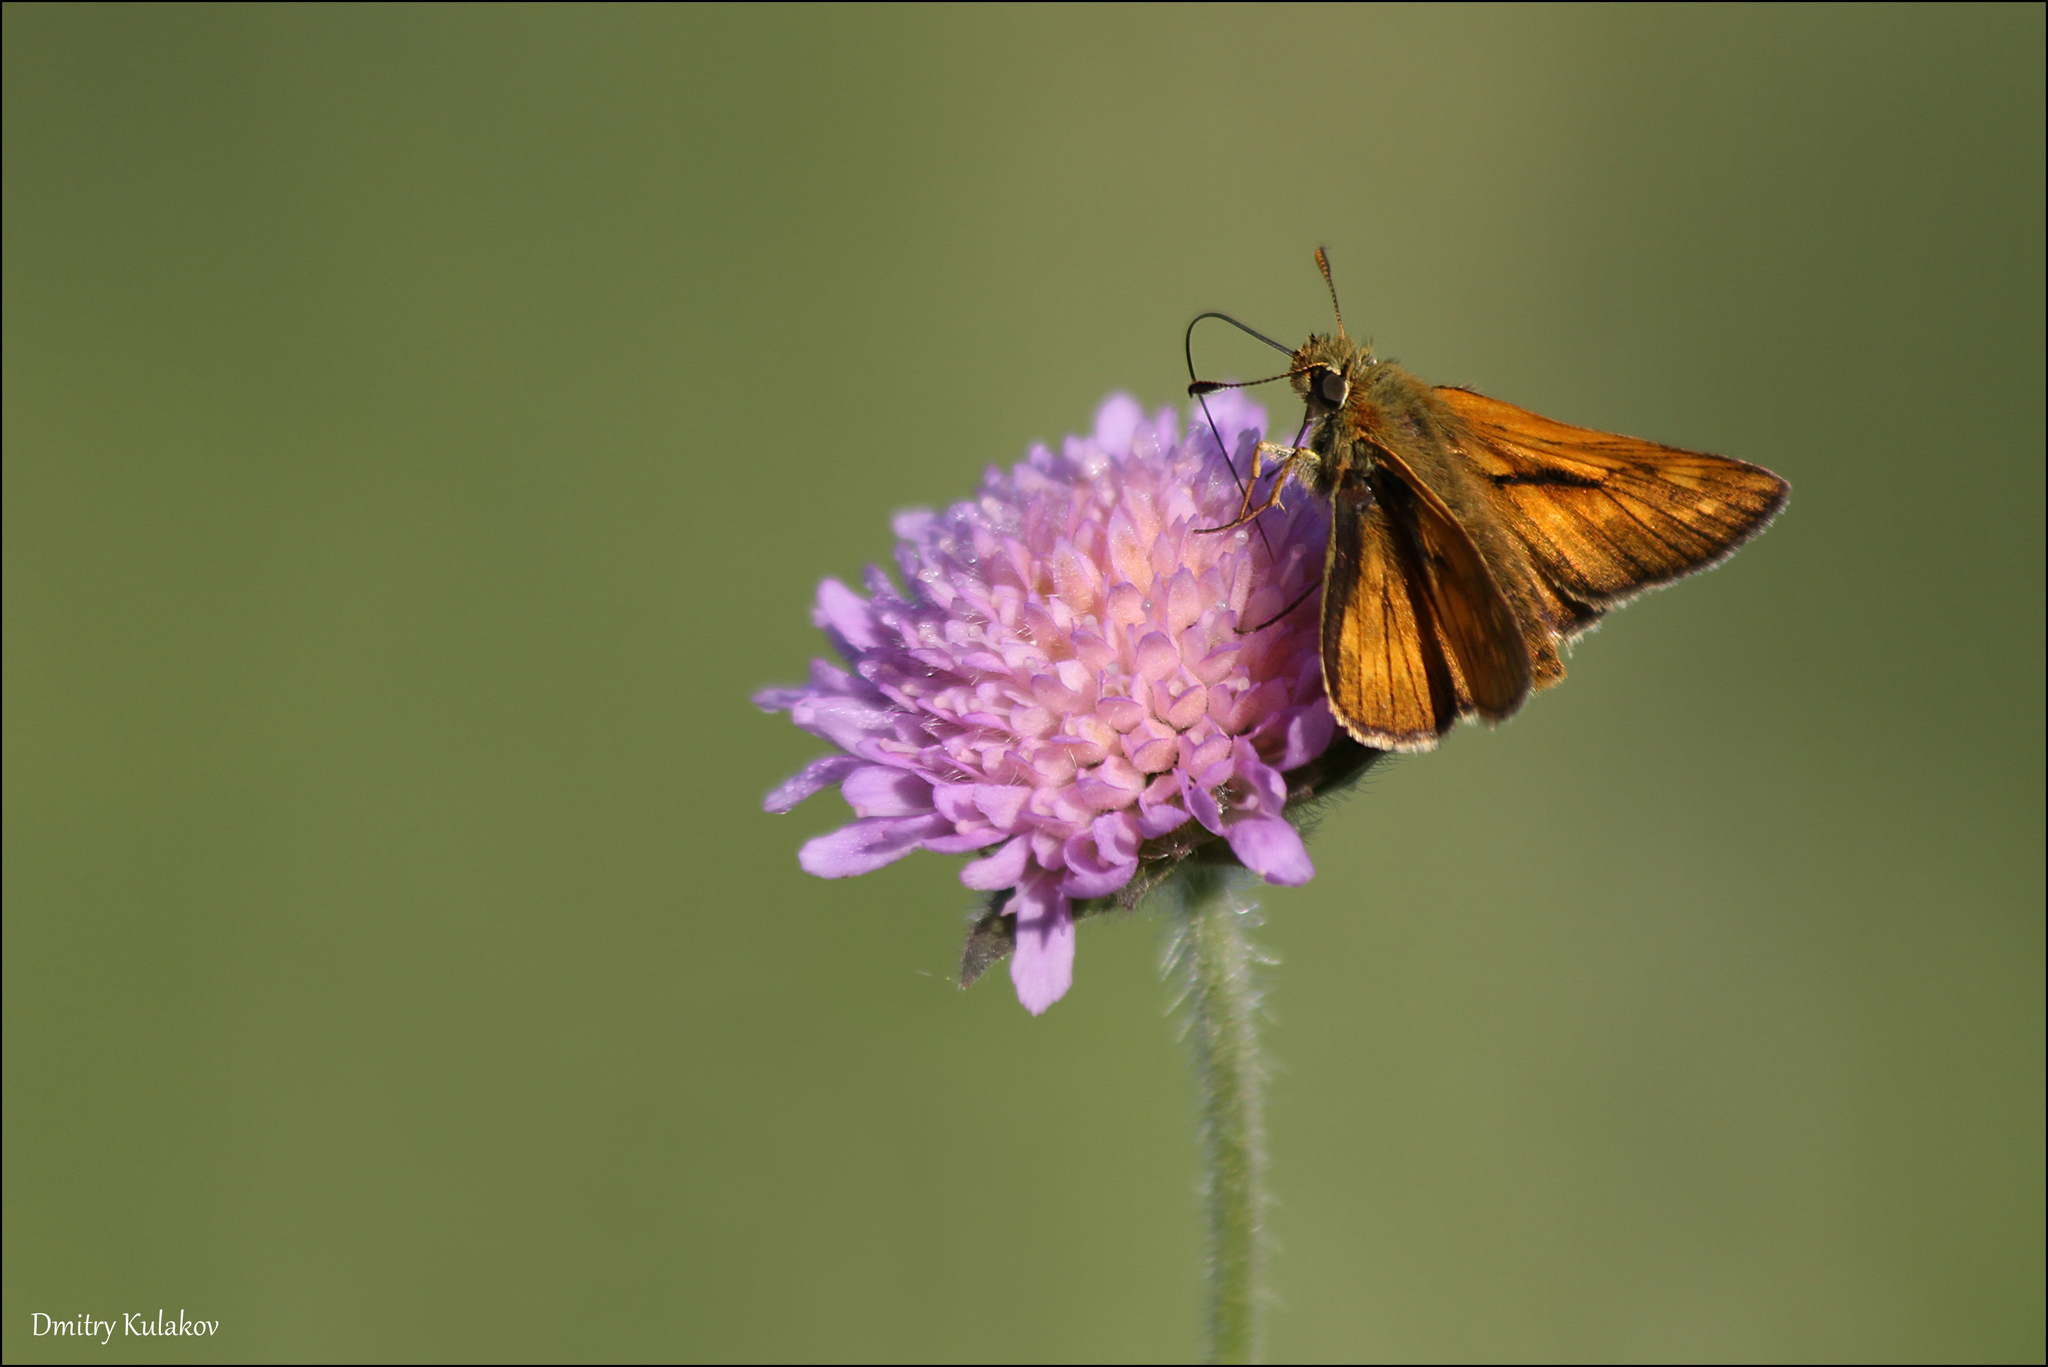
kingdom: Animalia
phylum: Arthropoda
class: Insecta
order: Lepidoptera
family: Hesperiidae
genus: Ochlodes
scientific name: Ochlodes venata
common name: Large skipper
